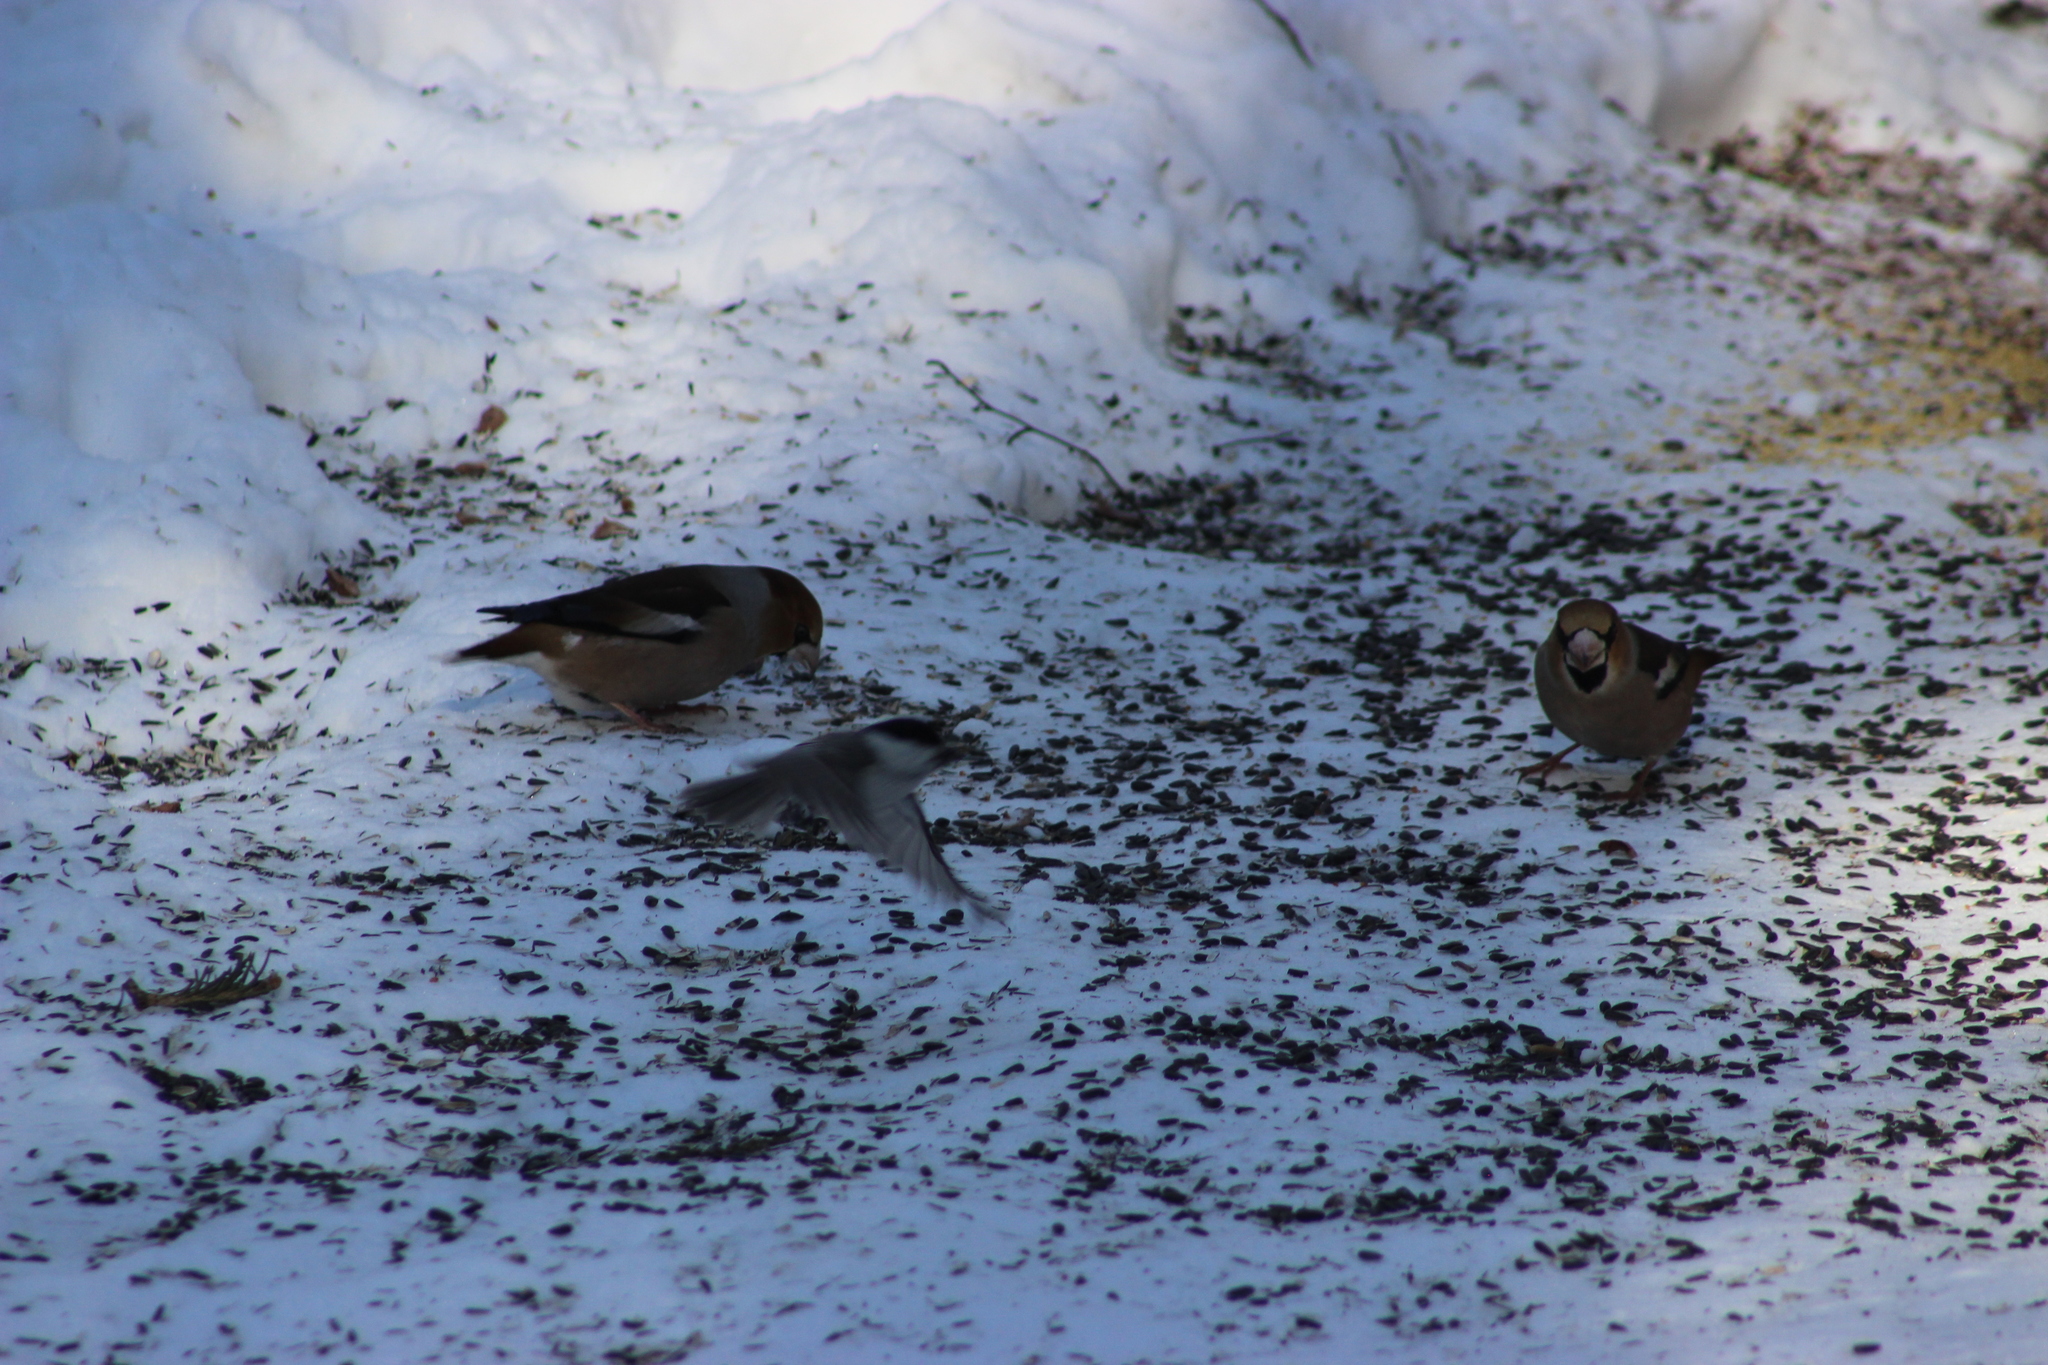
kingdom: Animalia
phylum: Chordata
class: Aves
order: Passeriformes
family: Fringillidae
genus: Coccothraustes
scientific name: Coccothraustes coccothraustes
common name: Hawfinch
